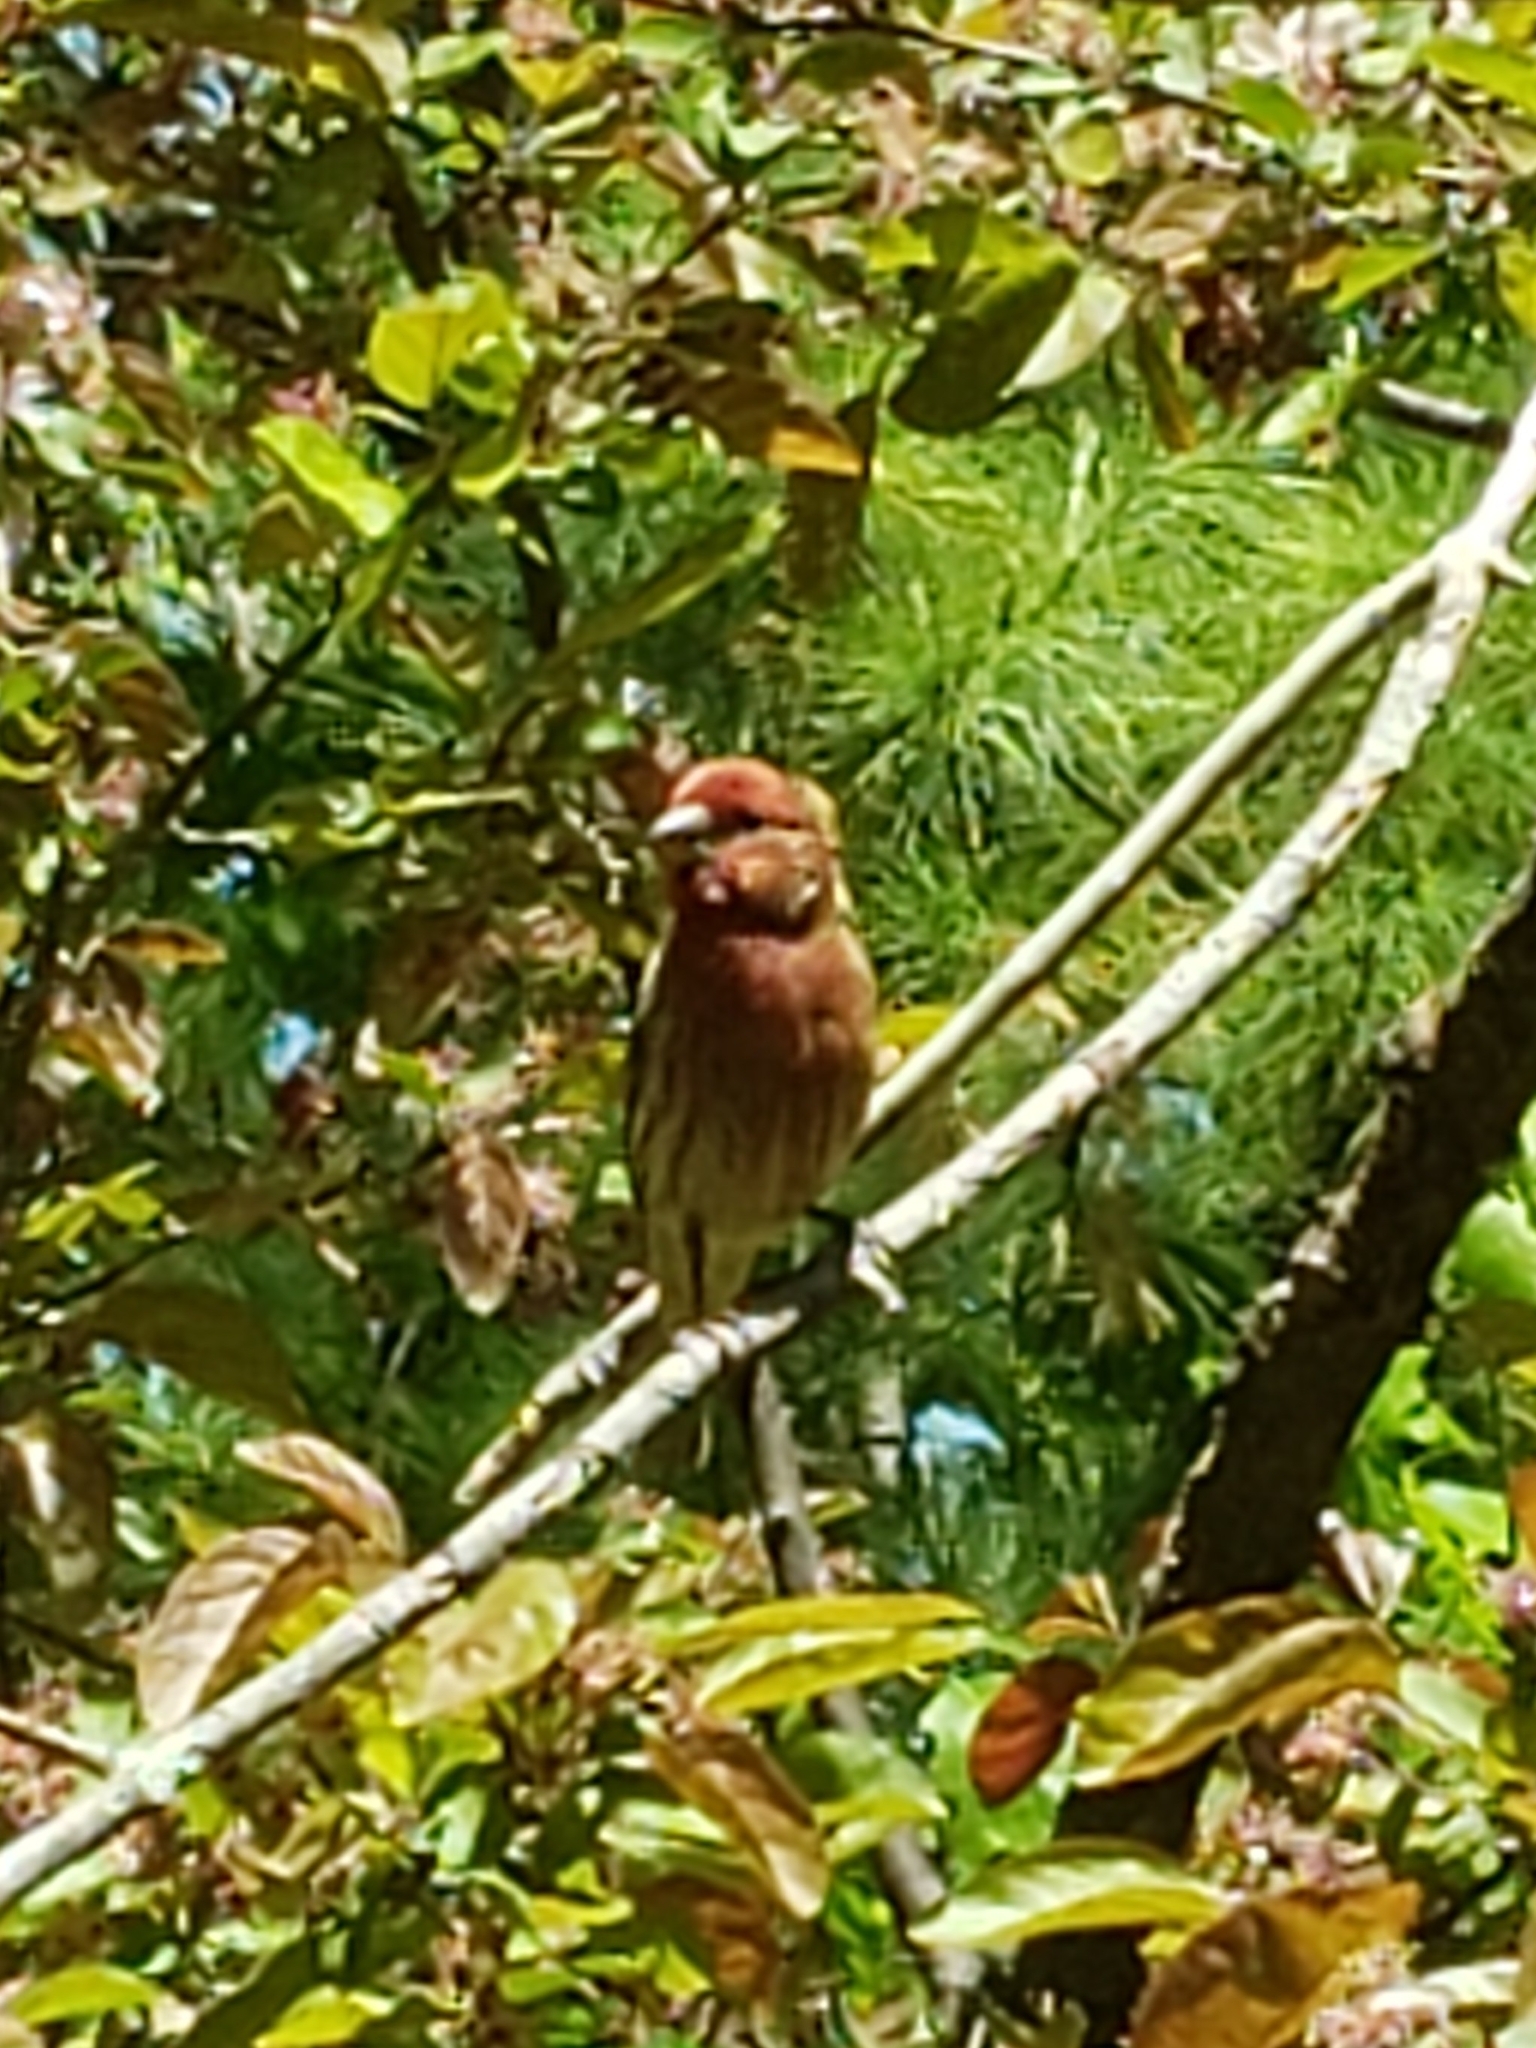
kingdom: Animalia
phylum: Chordata
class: Aves
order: Passeriformes
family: Fringillidae
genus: Haemorhous
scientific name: Haemorhous mexicanus
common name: House finch
